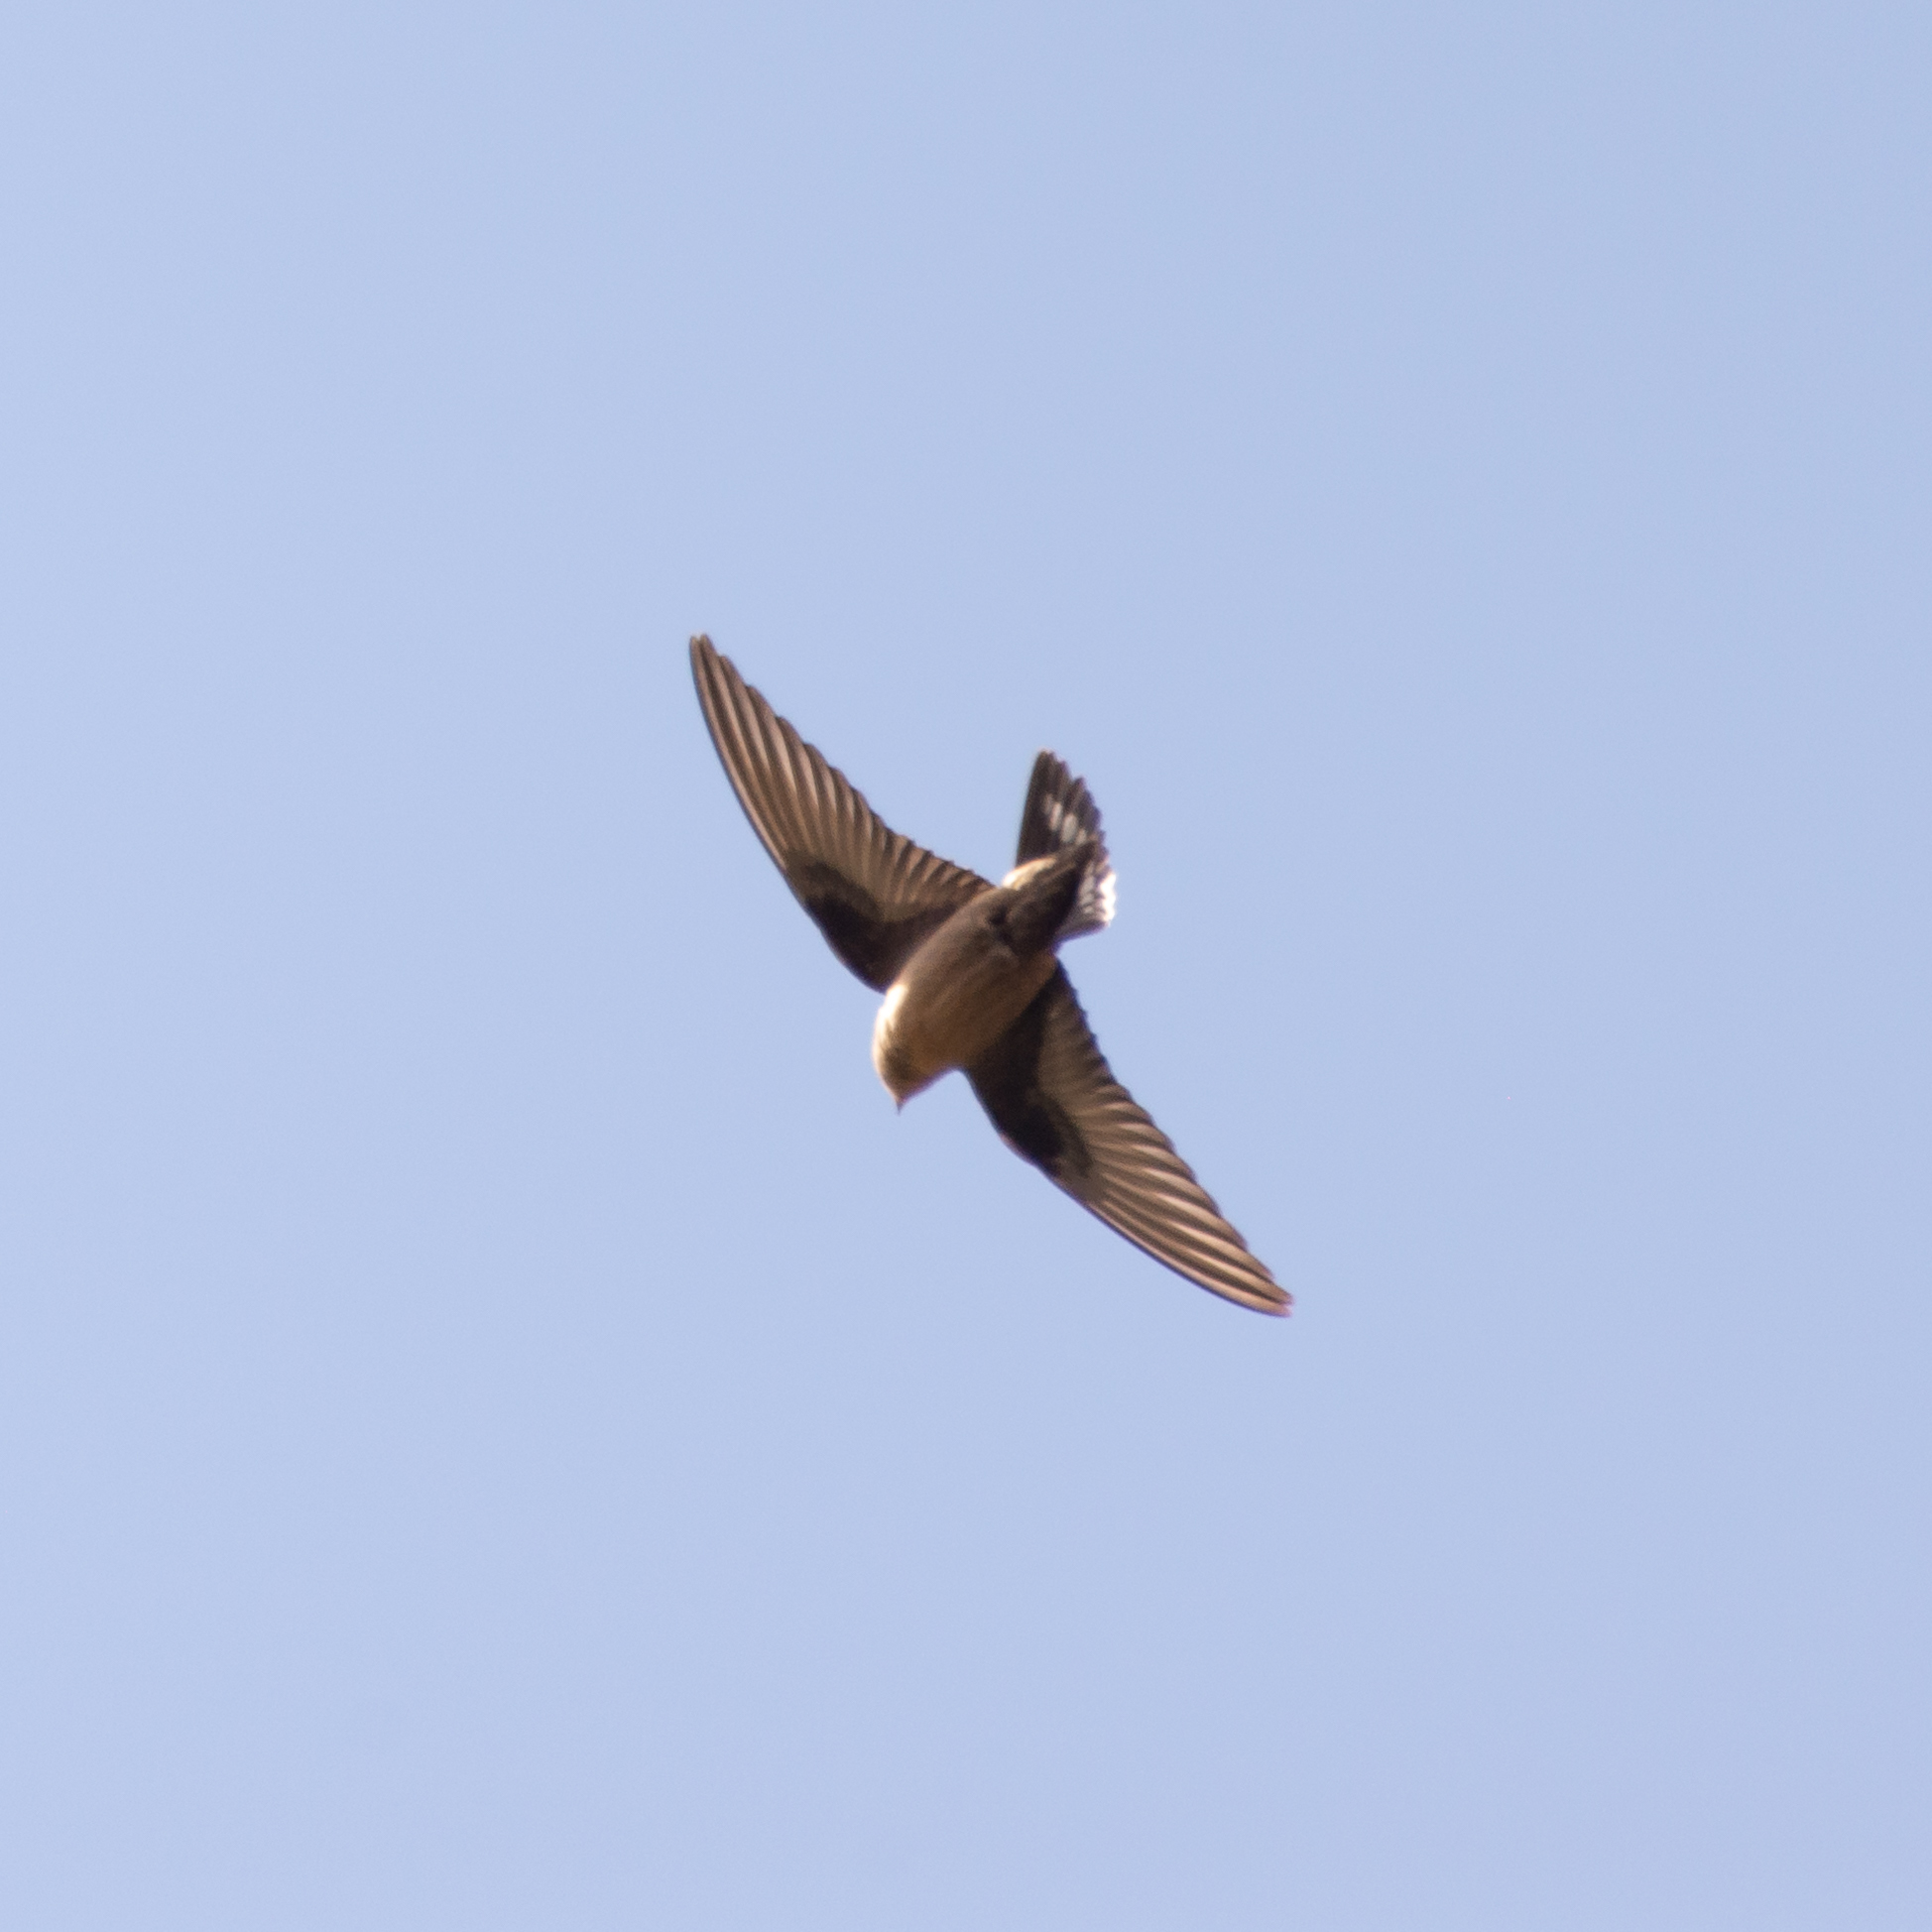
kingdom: Animalia
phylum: Chordata
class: Aves
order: Passeriformes
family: Hirundinidae
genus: Ptyonoprogne
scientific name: Ptyonoprogne rupestris
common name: Eurasian crag martin
